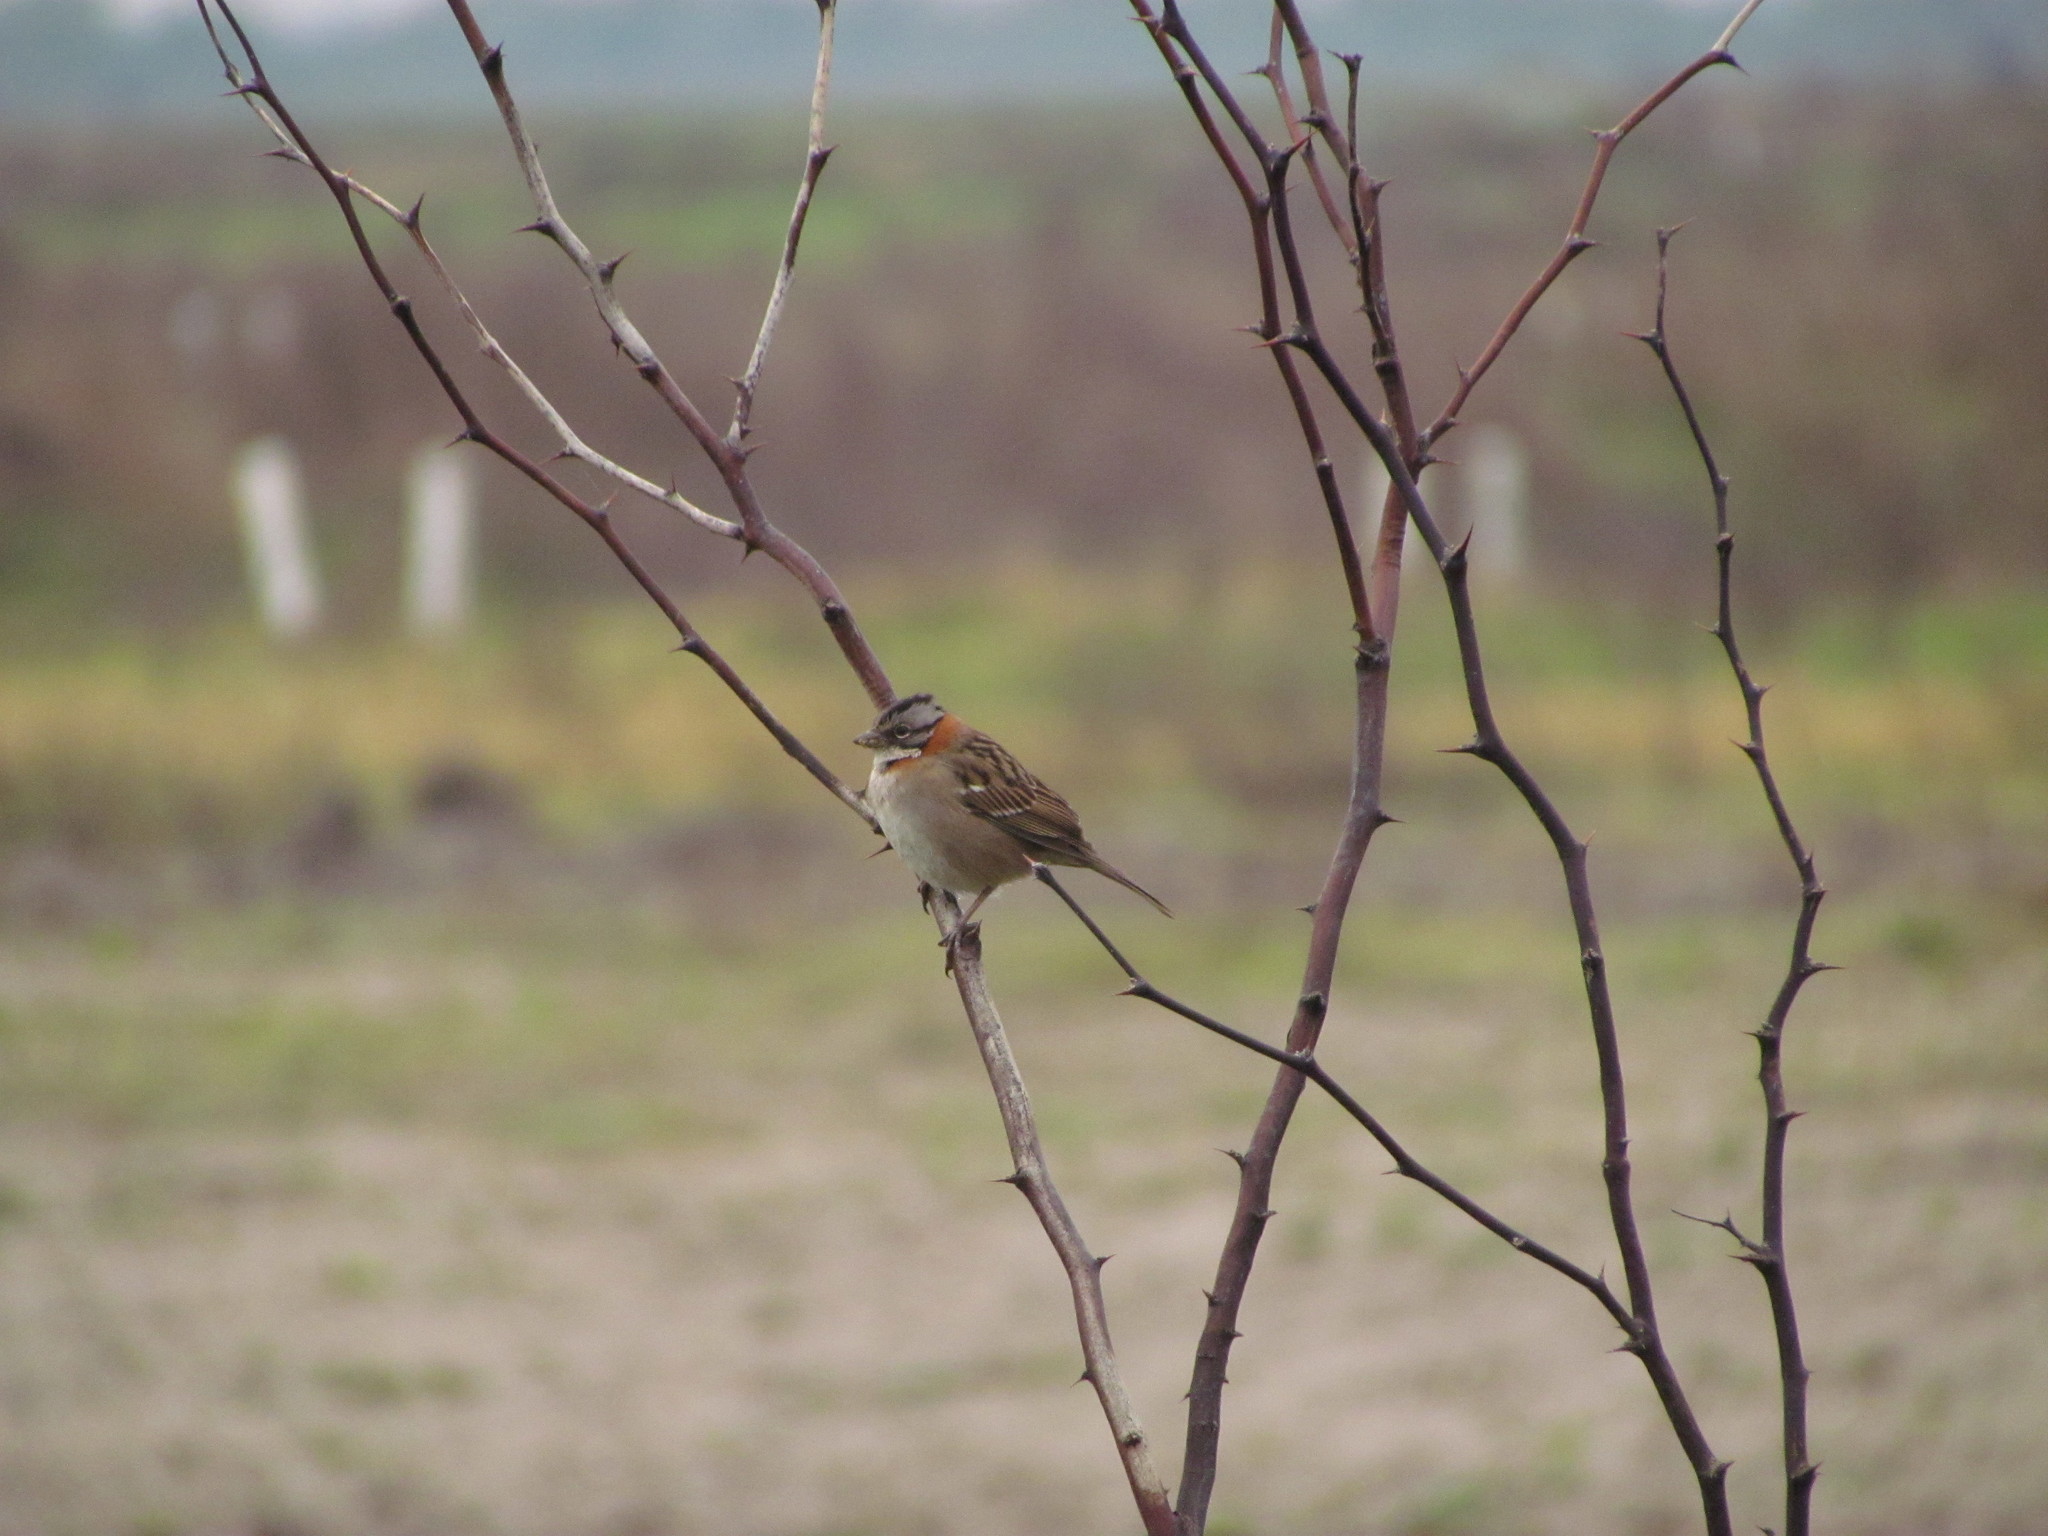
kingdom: Animalia
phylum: Chordata
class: Aves
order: Passeriformes
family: Passerellidae
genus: Zonotrichia
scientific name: Zonotrichia capensis
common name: Rufous-collared sparrow
